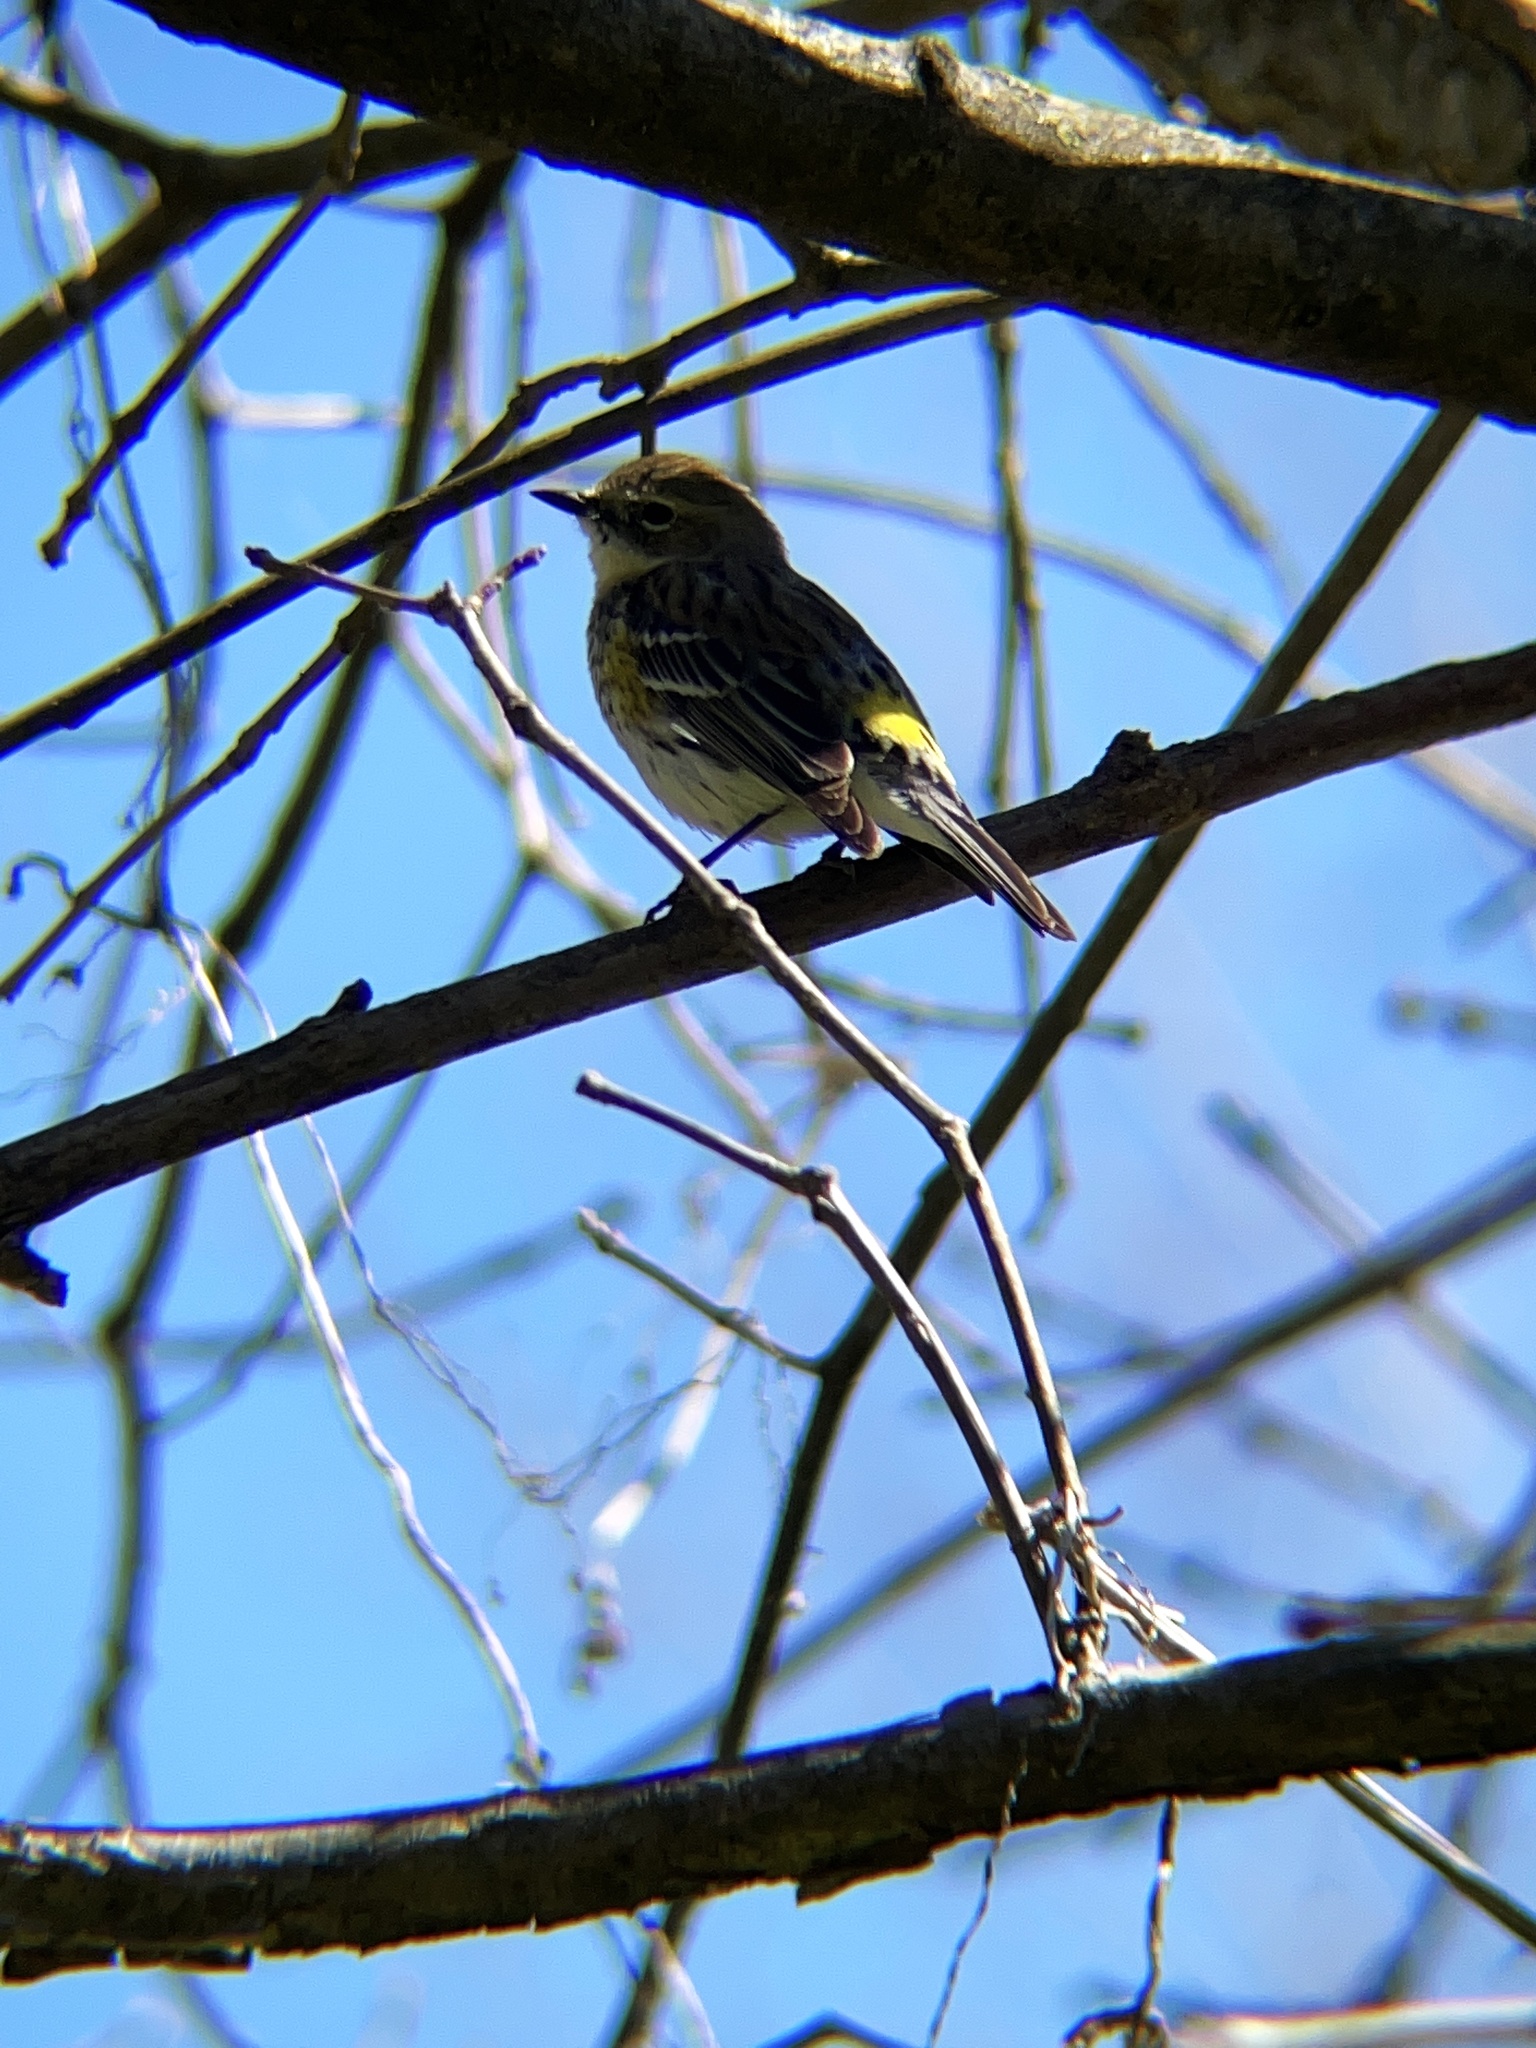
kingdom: Animalia
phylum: Chordata
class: Aves
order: Passeriformes
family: Parulidae
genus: Setophaga
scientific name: Setophaga coronata
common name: Myrtle warbler
